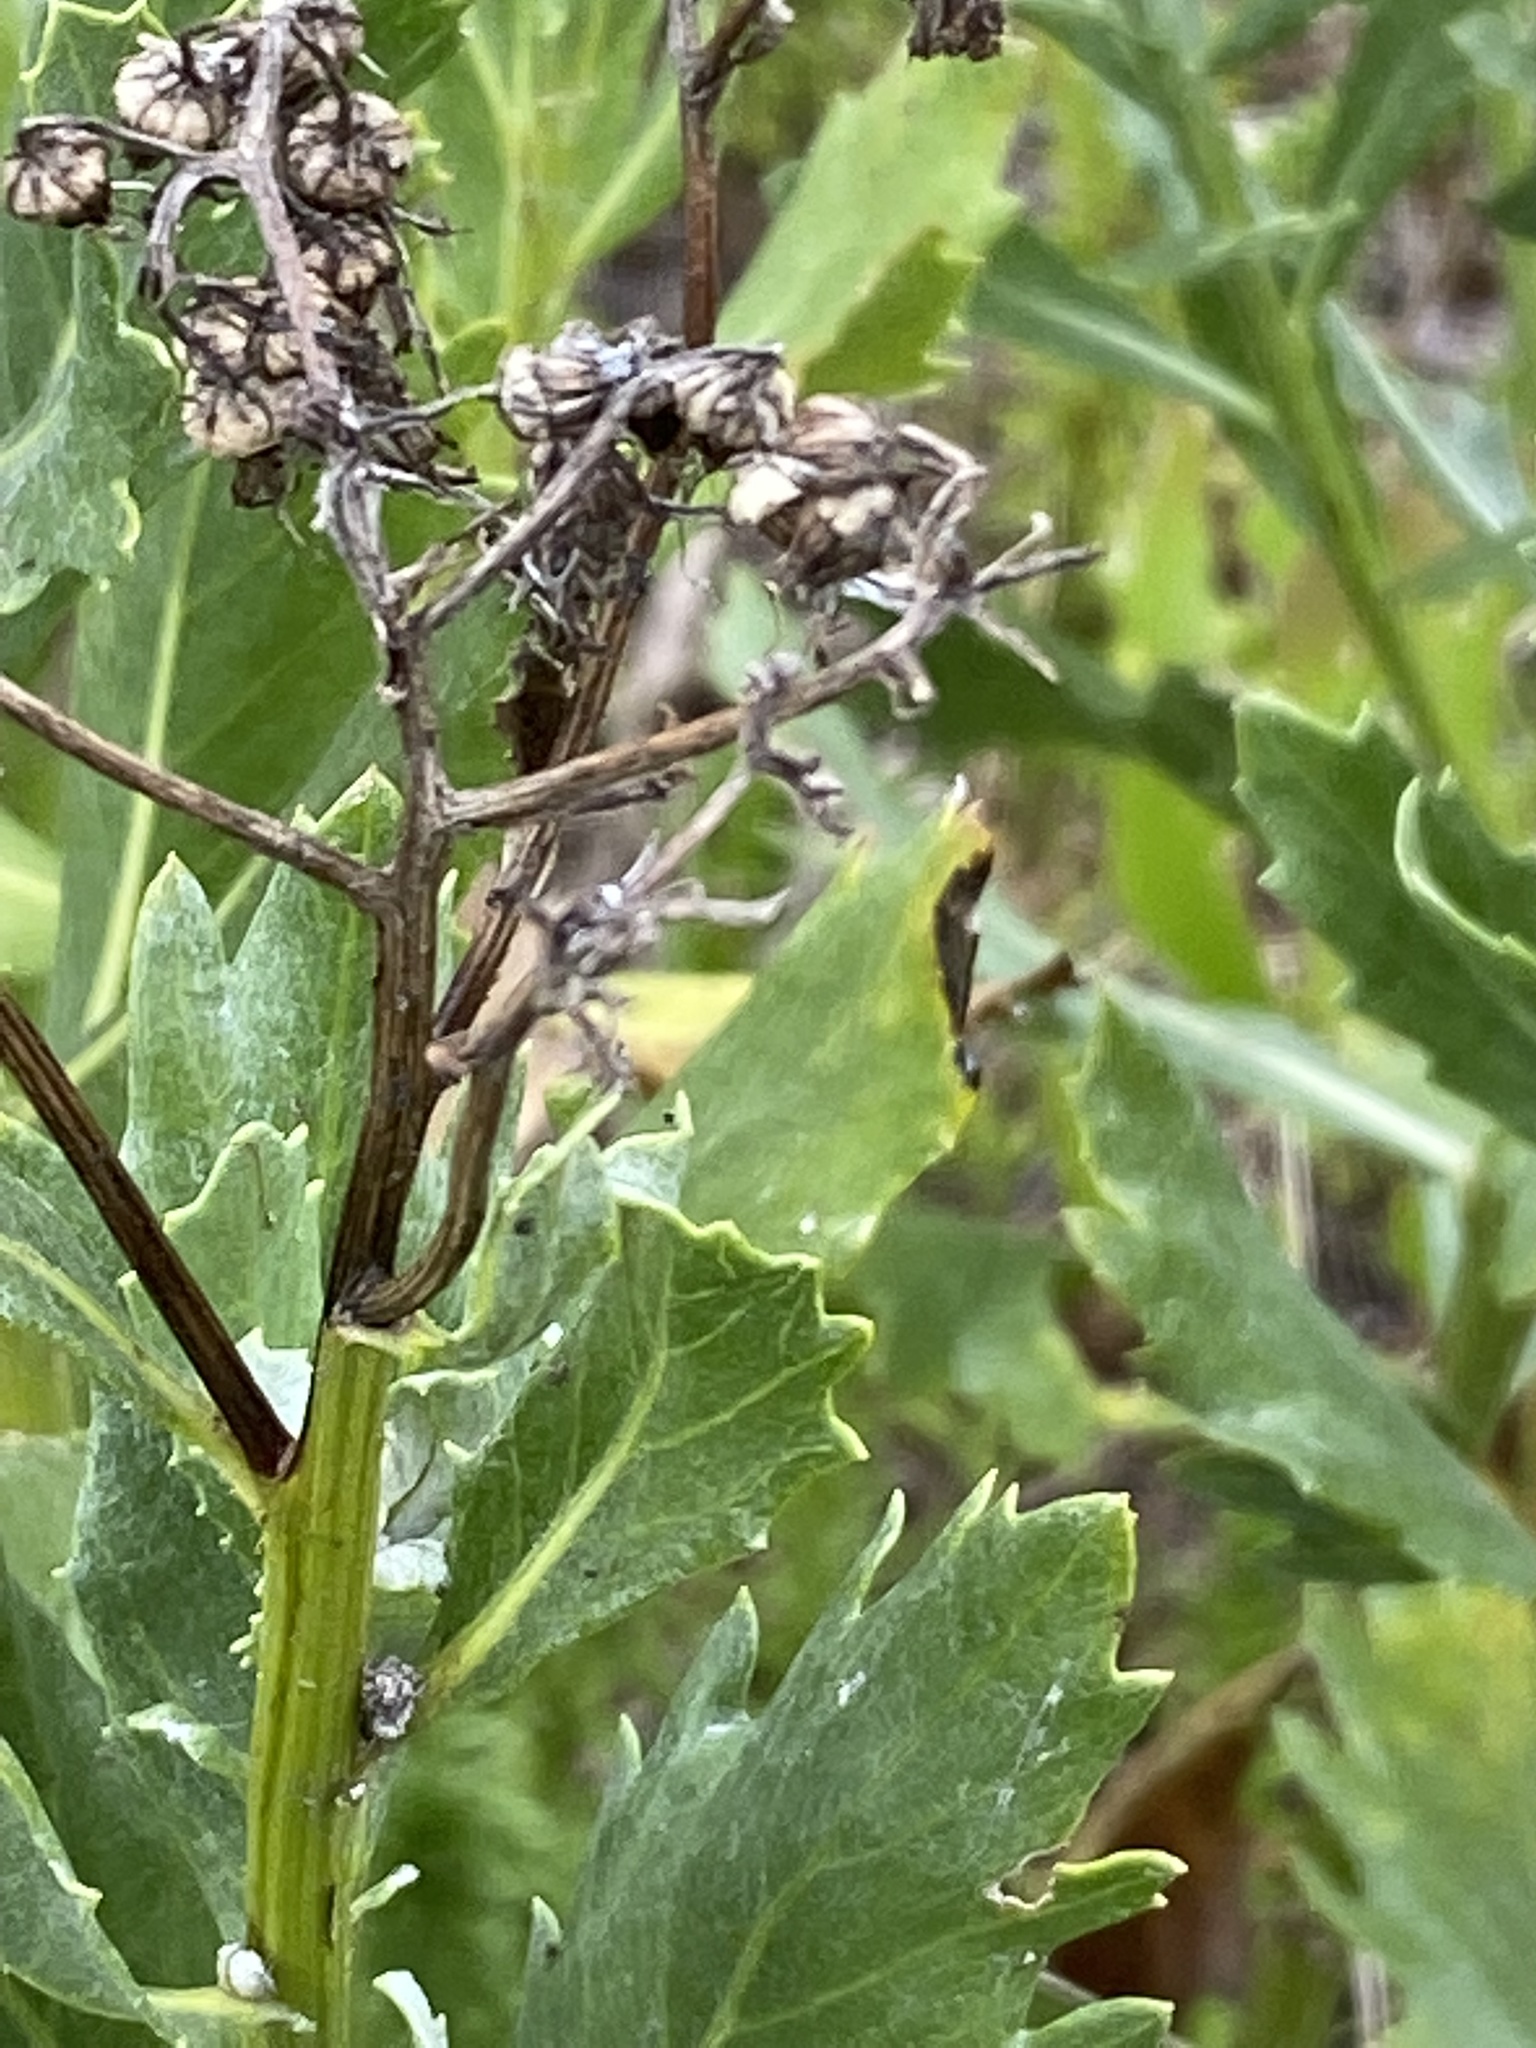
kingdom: Plantae
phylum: Tracheophyta
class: Magnoliopsida
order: Asterales
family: Asteraceae
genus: Senecio
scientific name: Senecio halimifolius
